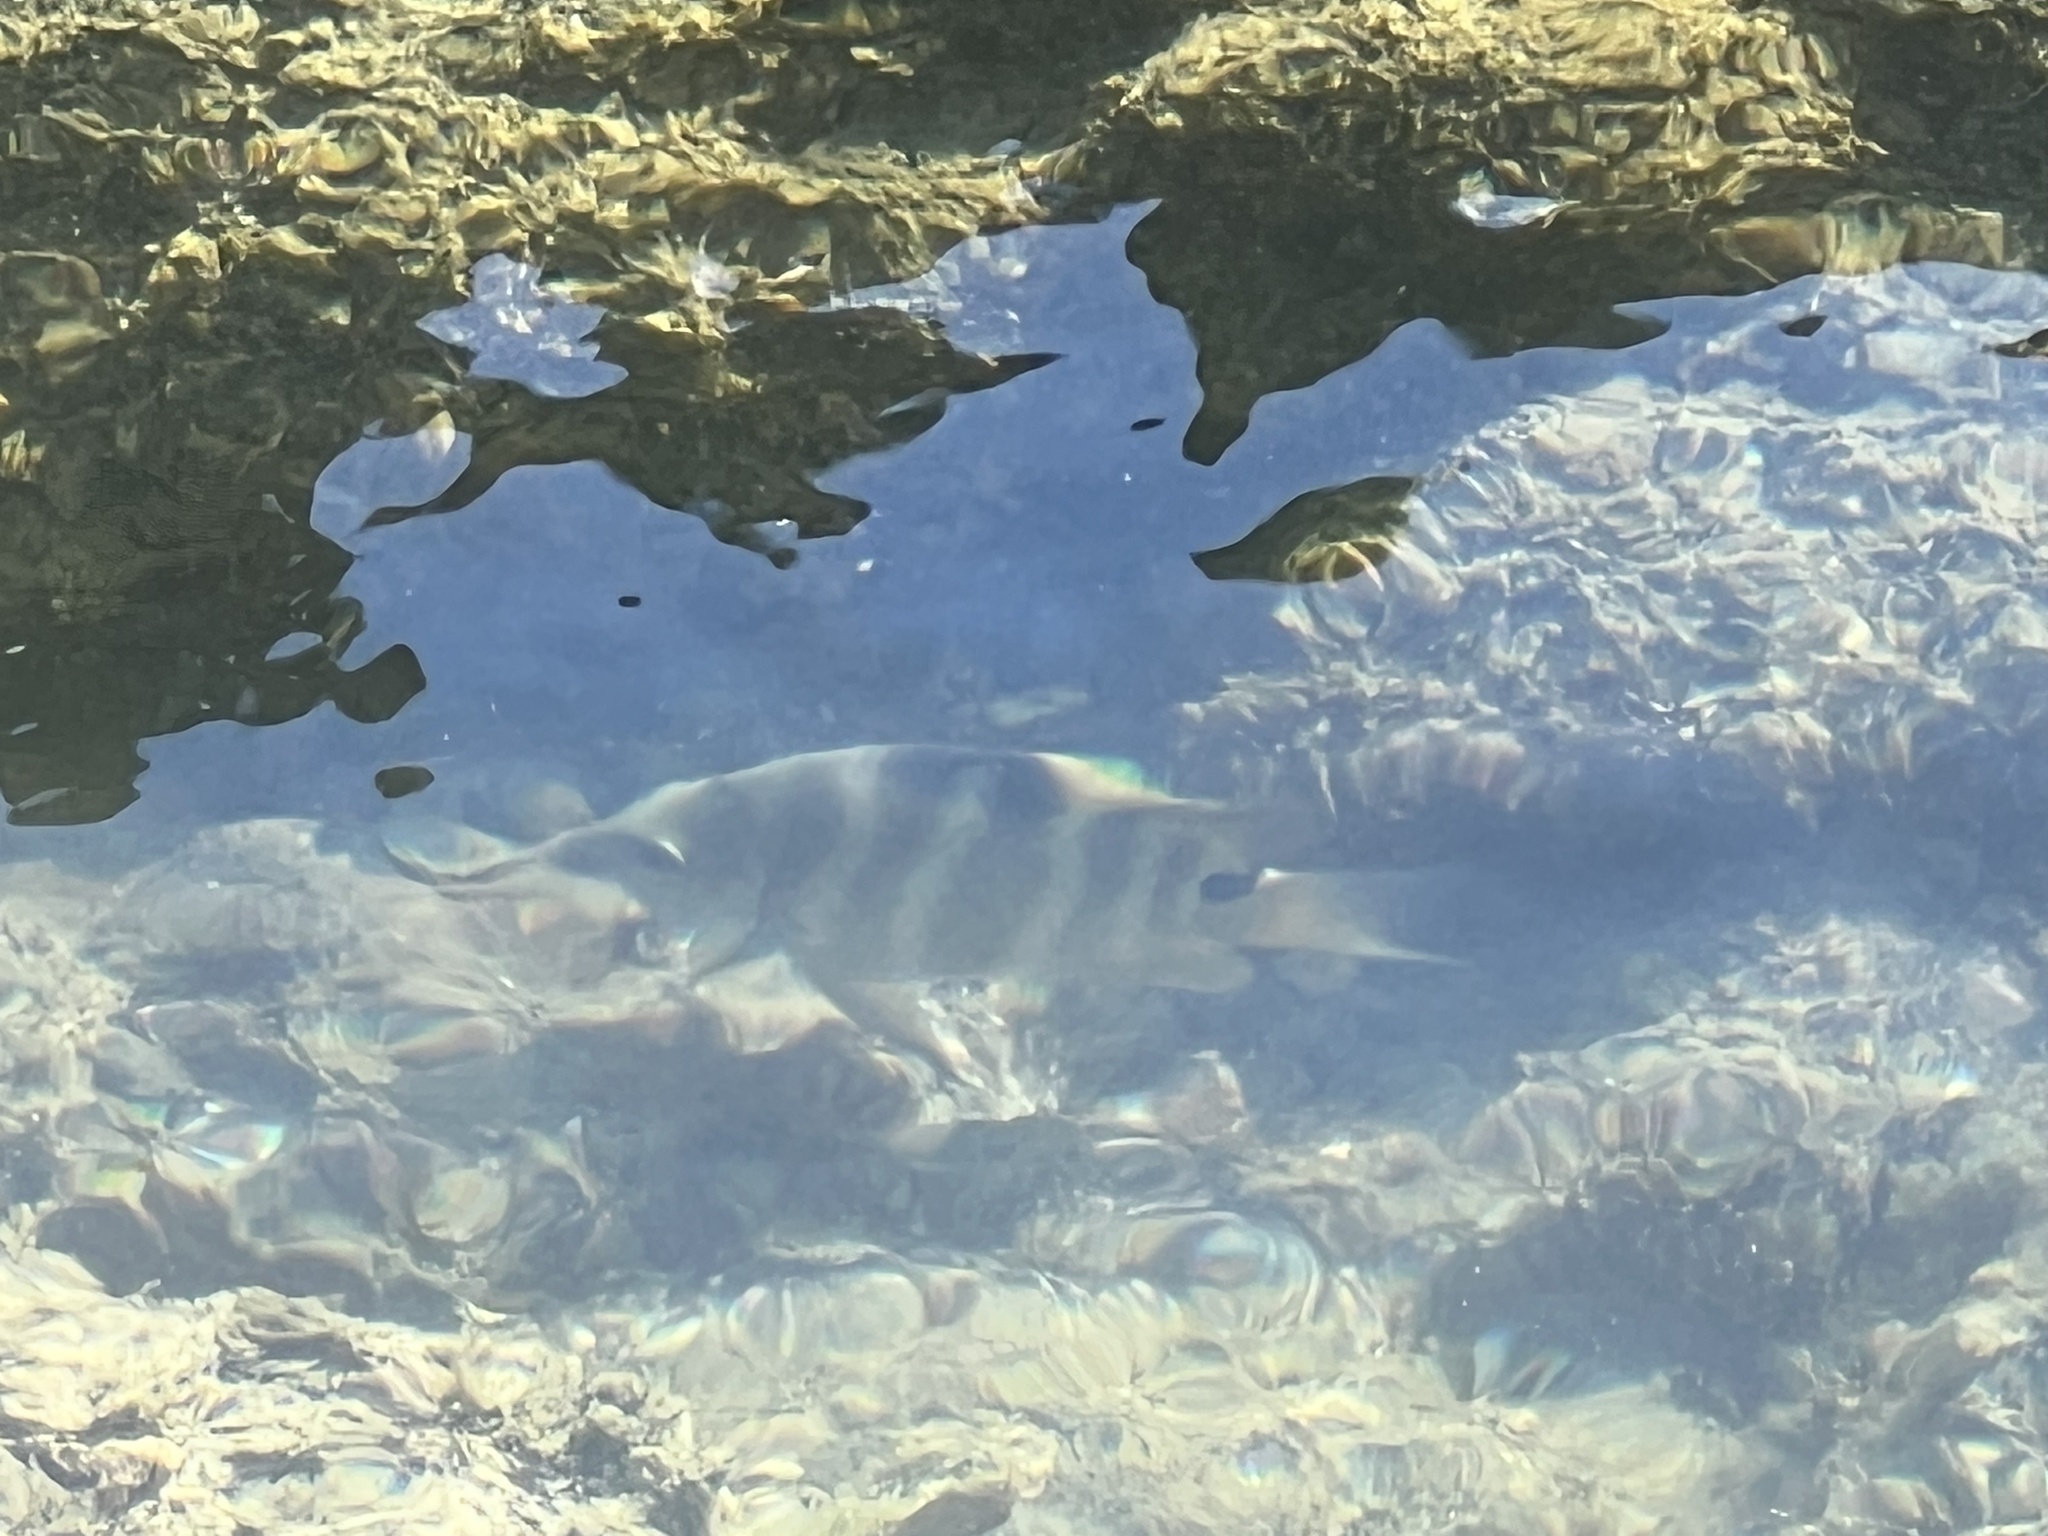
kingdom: Animalia
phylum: Chordata
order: Perciformes
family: Pomacentridae
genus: Abudefduf
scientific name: Abudefduf sordidus
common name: Blackspot sergeant
